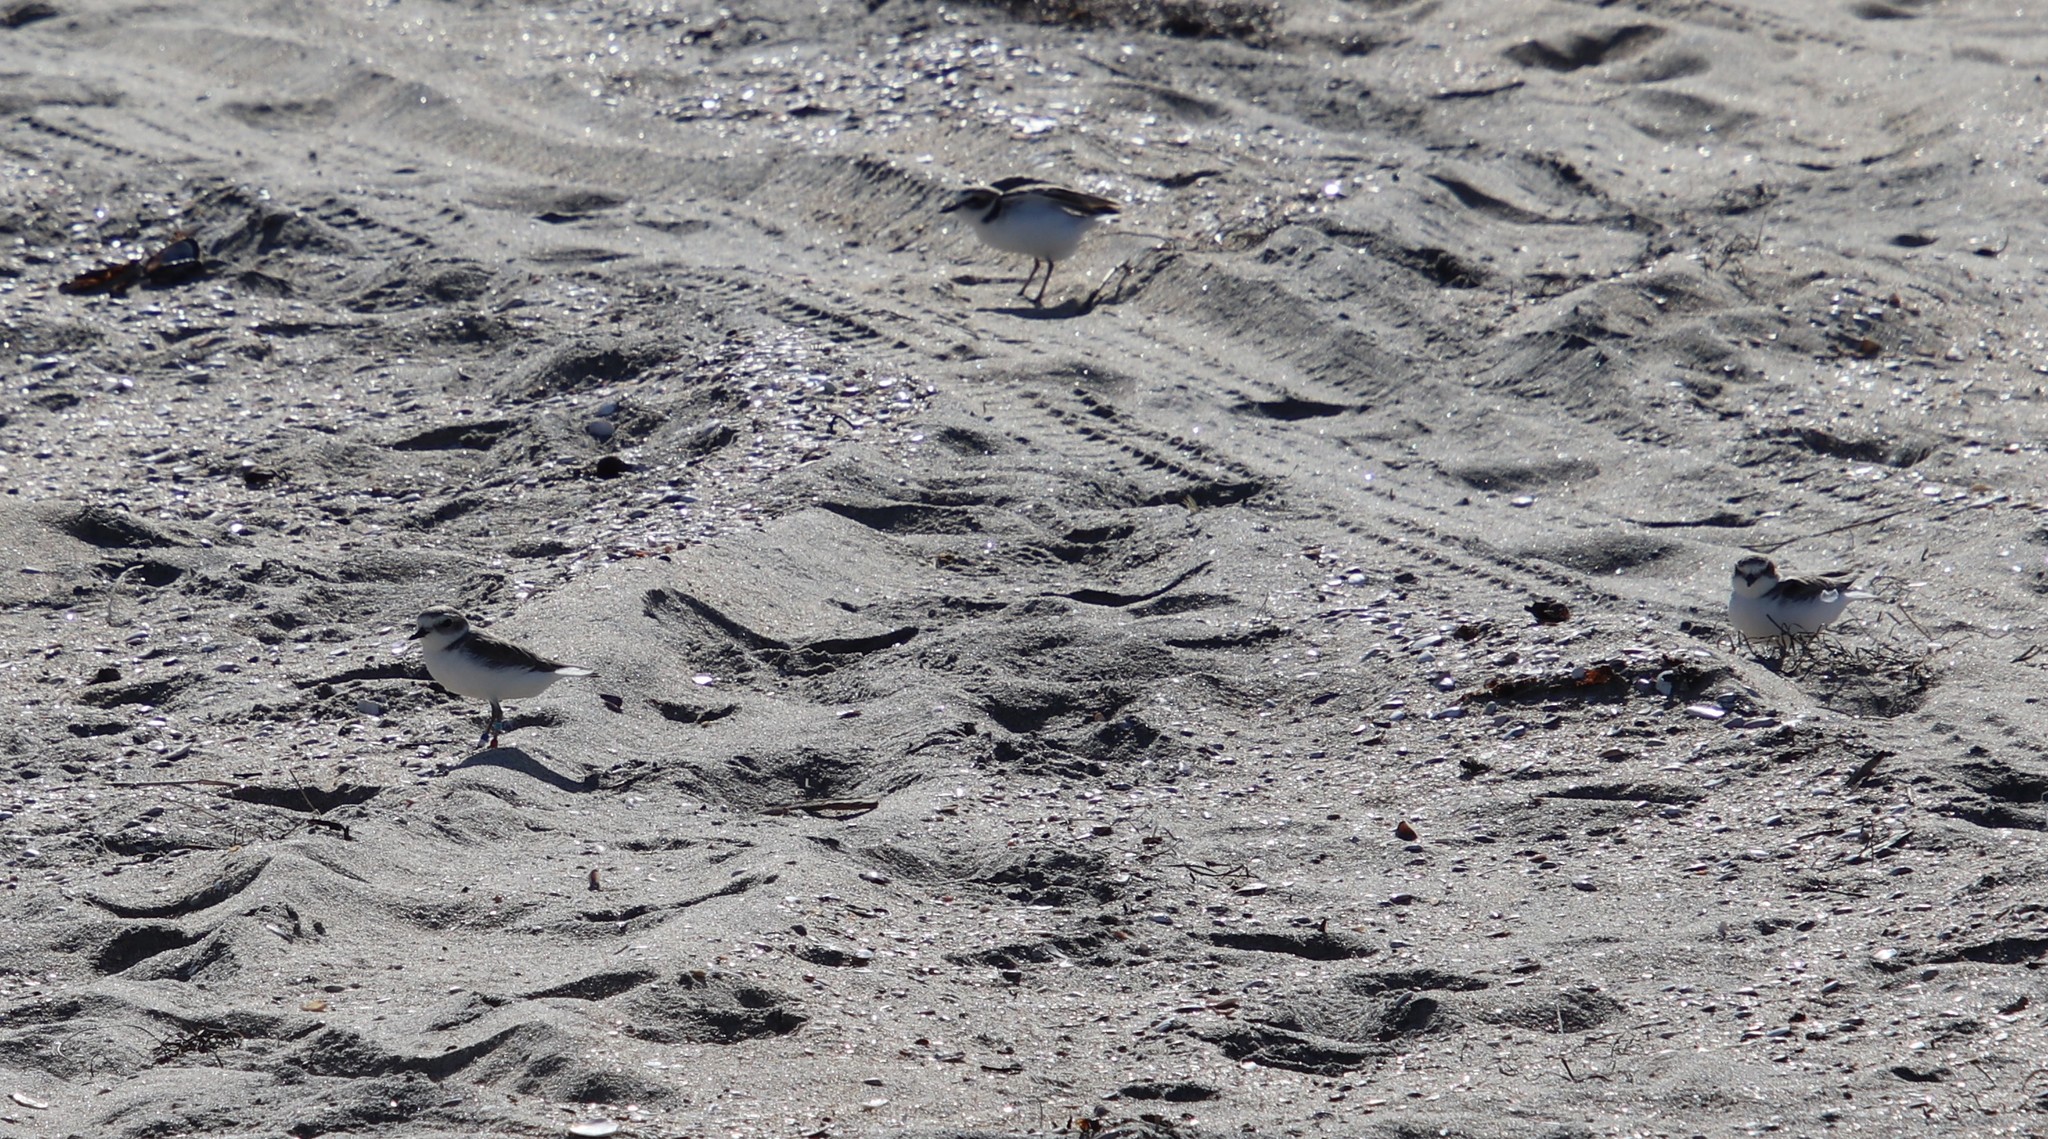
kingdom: Animalia
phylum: Chordata
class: Aves
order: Charadriiformes
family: Charadriidae
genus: Anarhynchus
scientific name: Anarhynchus
